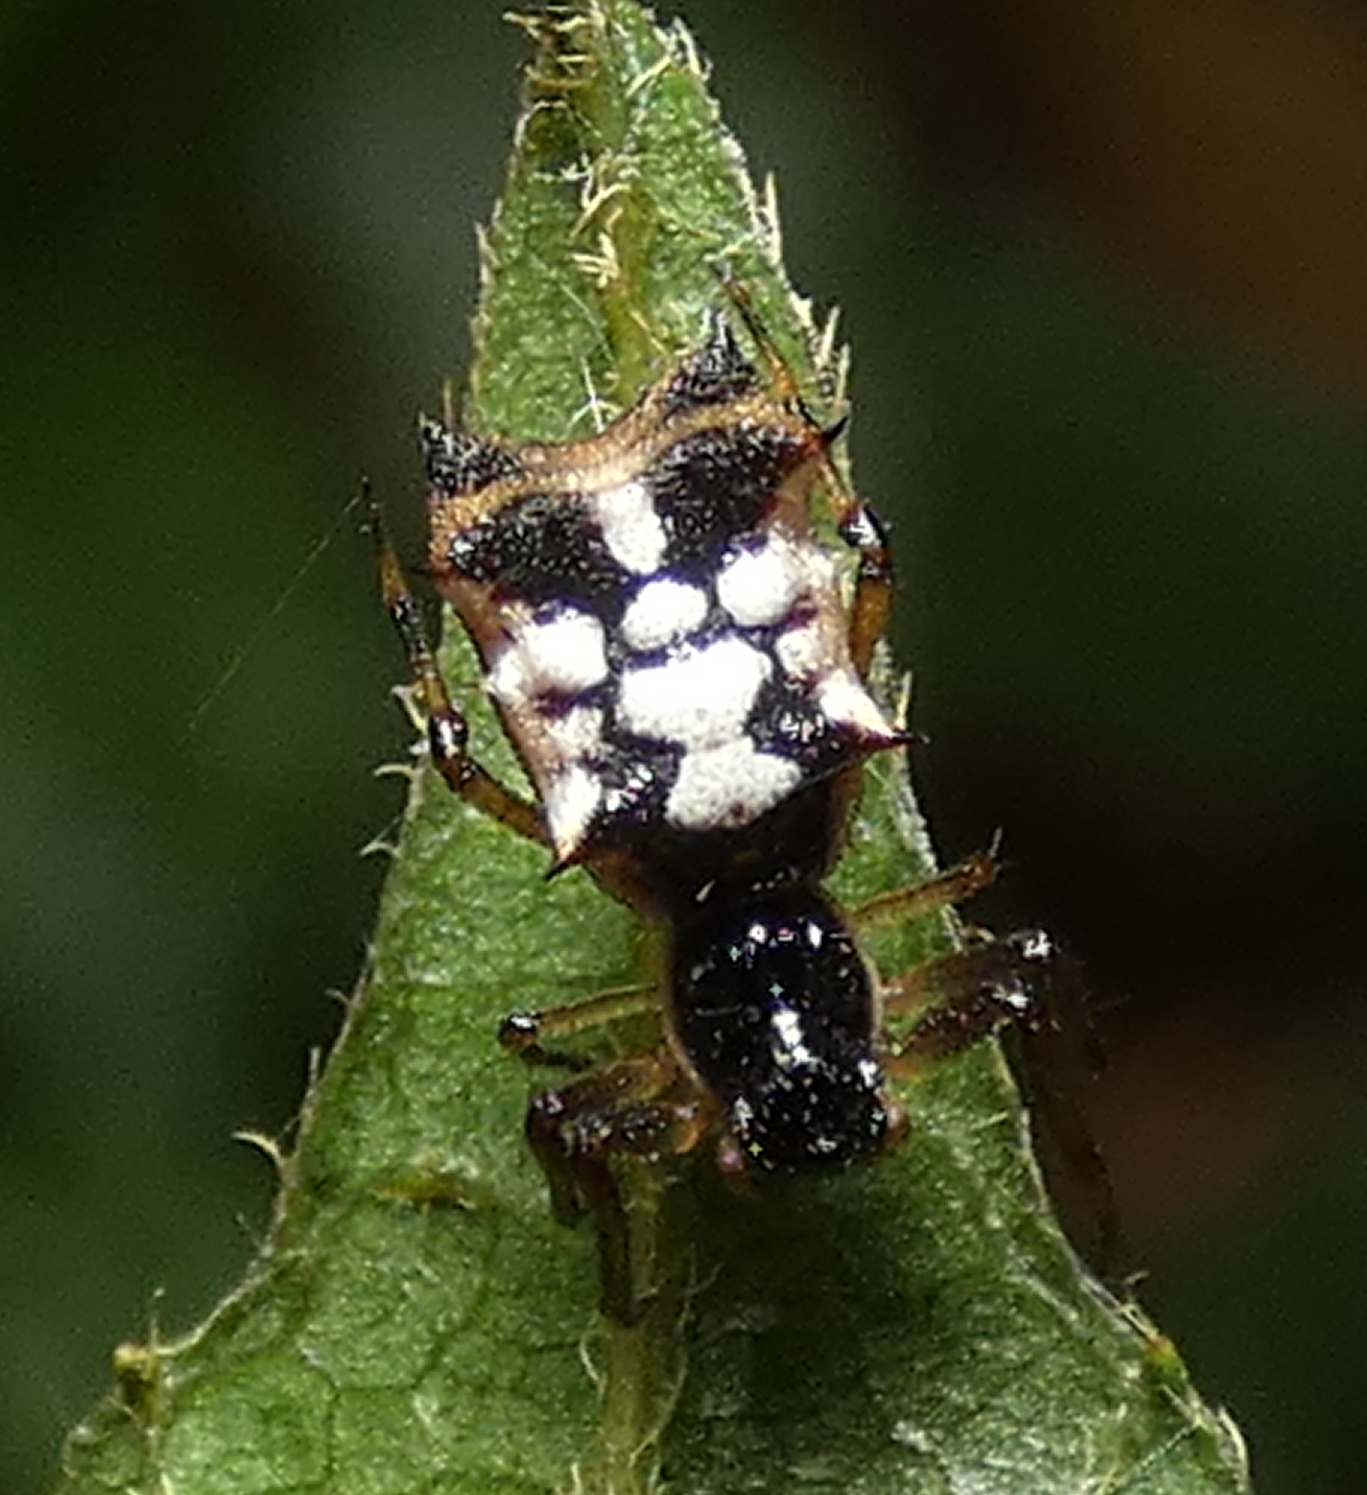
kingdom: Animalia
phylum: Arthropoda
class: Arachnida
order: Araneae
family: Araneidae
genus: Micrathena
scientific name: Micrathena picta
